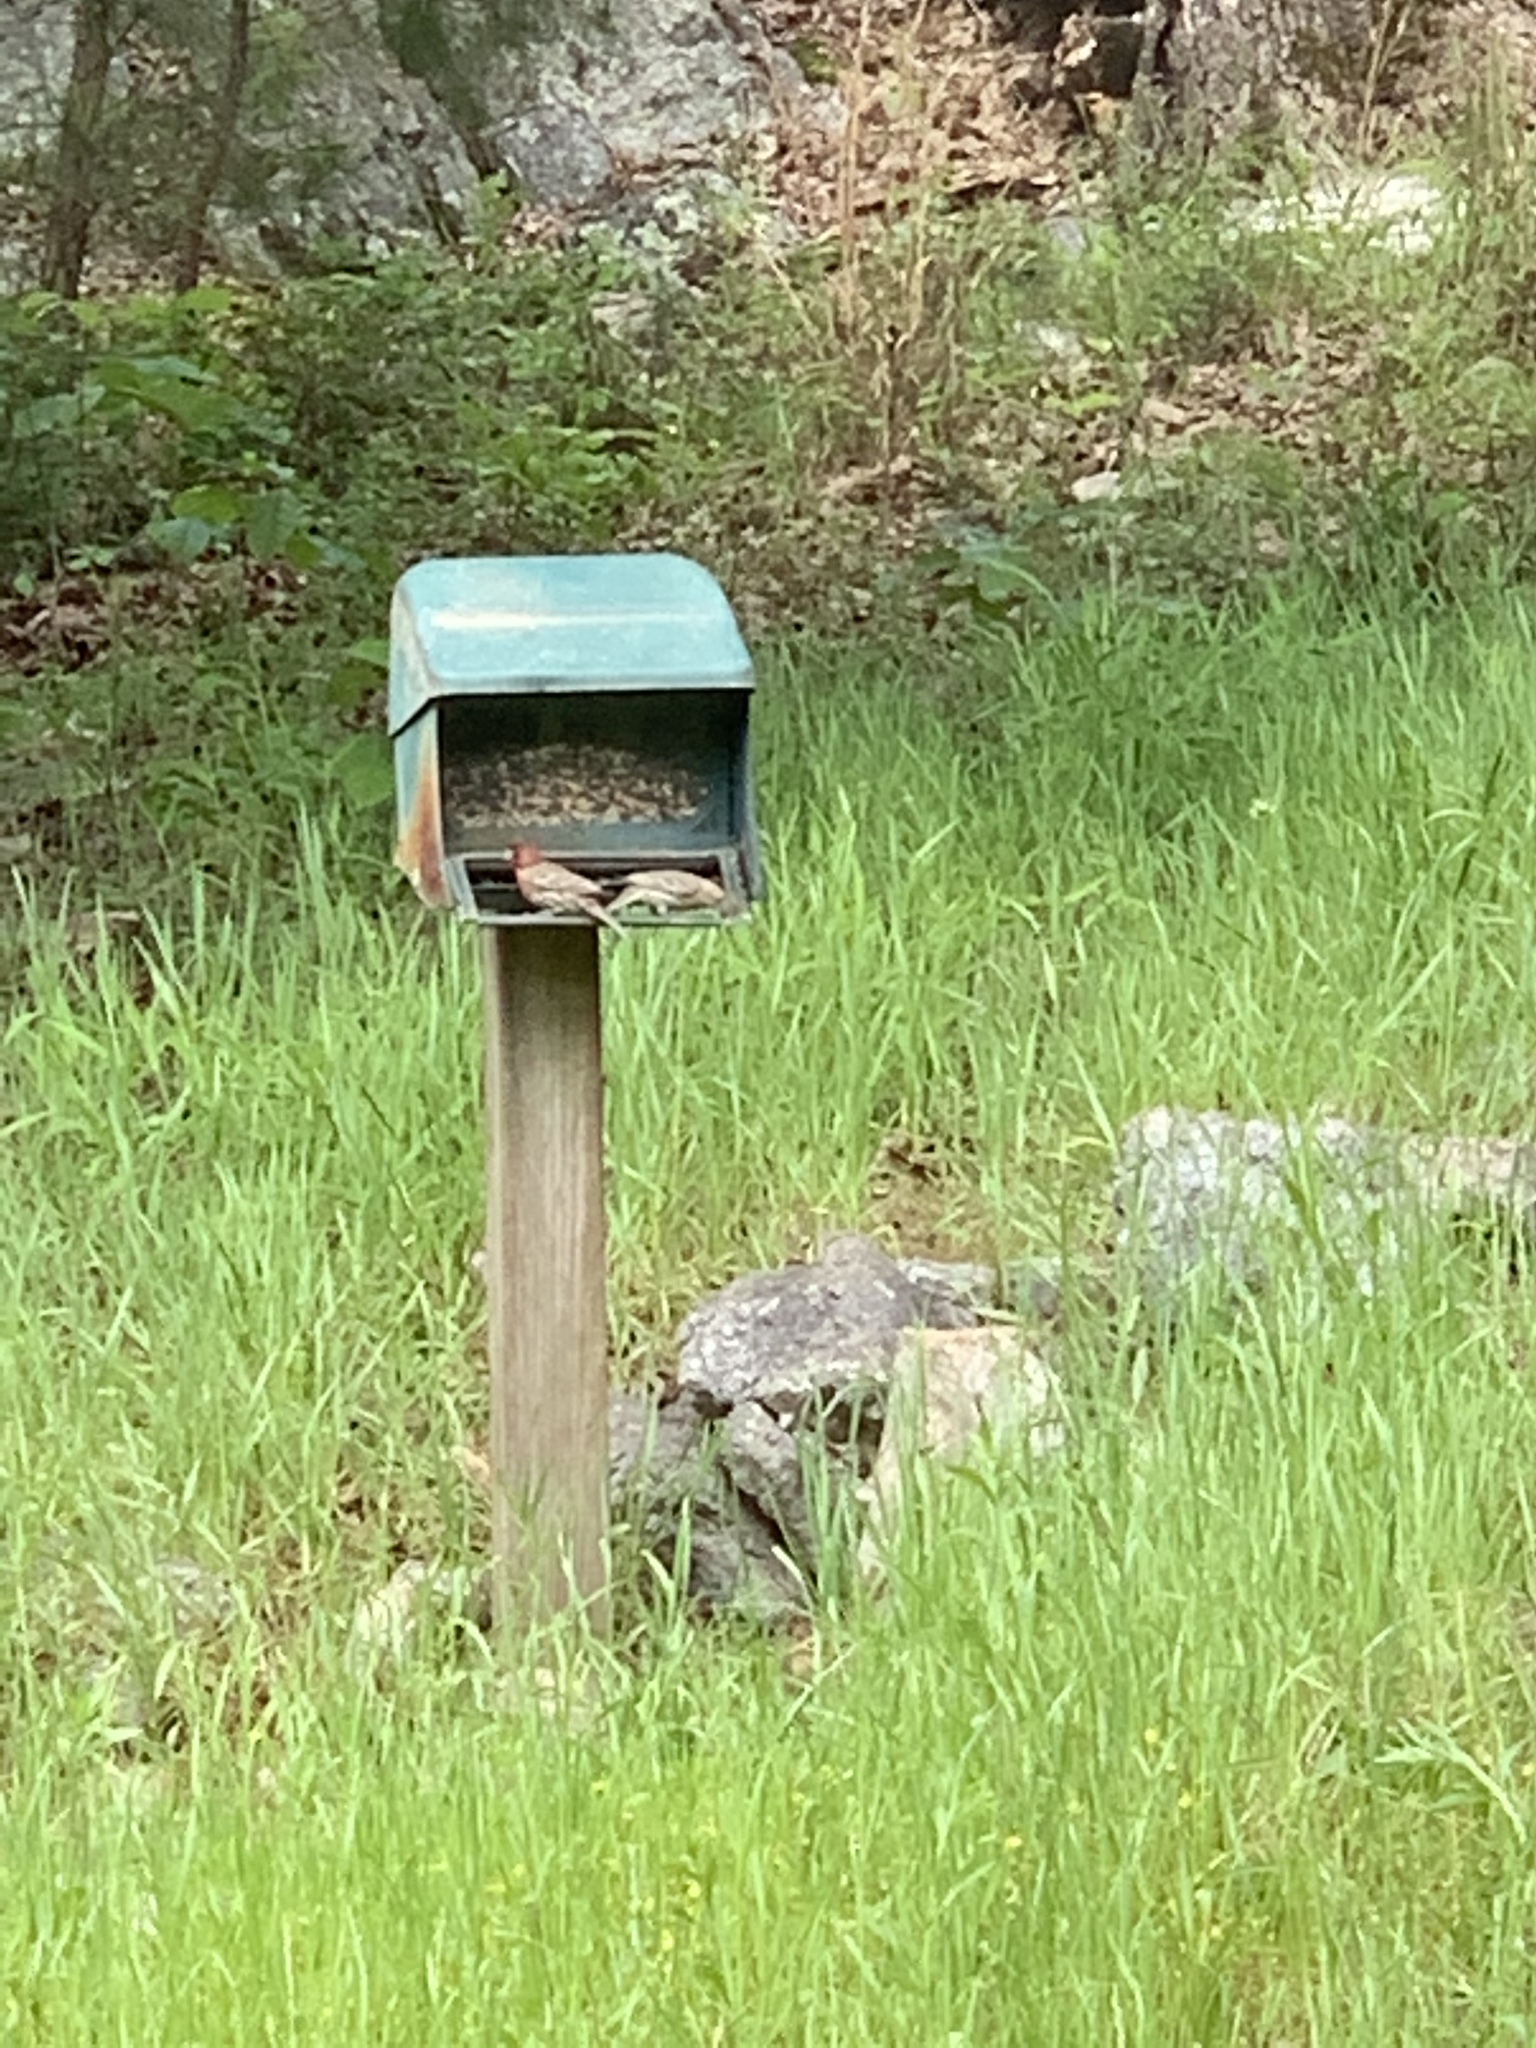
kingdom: Animalia
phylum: Chordata
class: Aves
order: Passeriformes
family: Fringillidae
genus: Haemorhous
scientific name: Haemorhous mexicanus
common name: House finch
